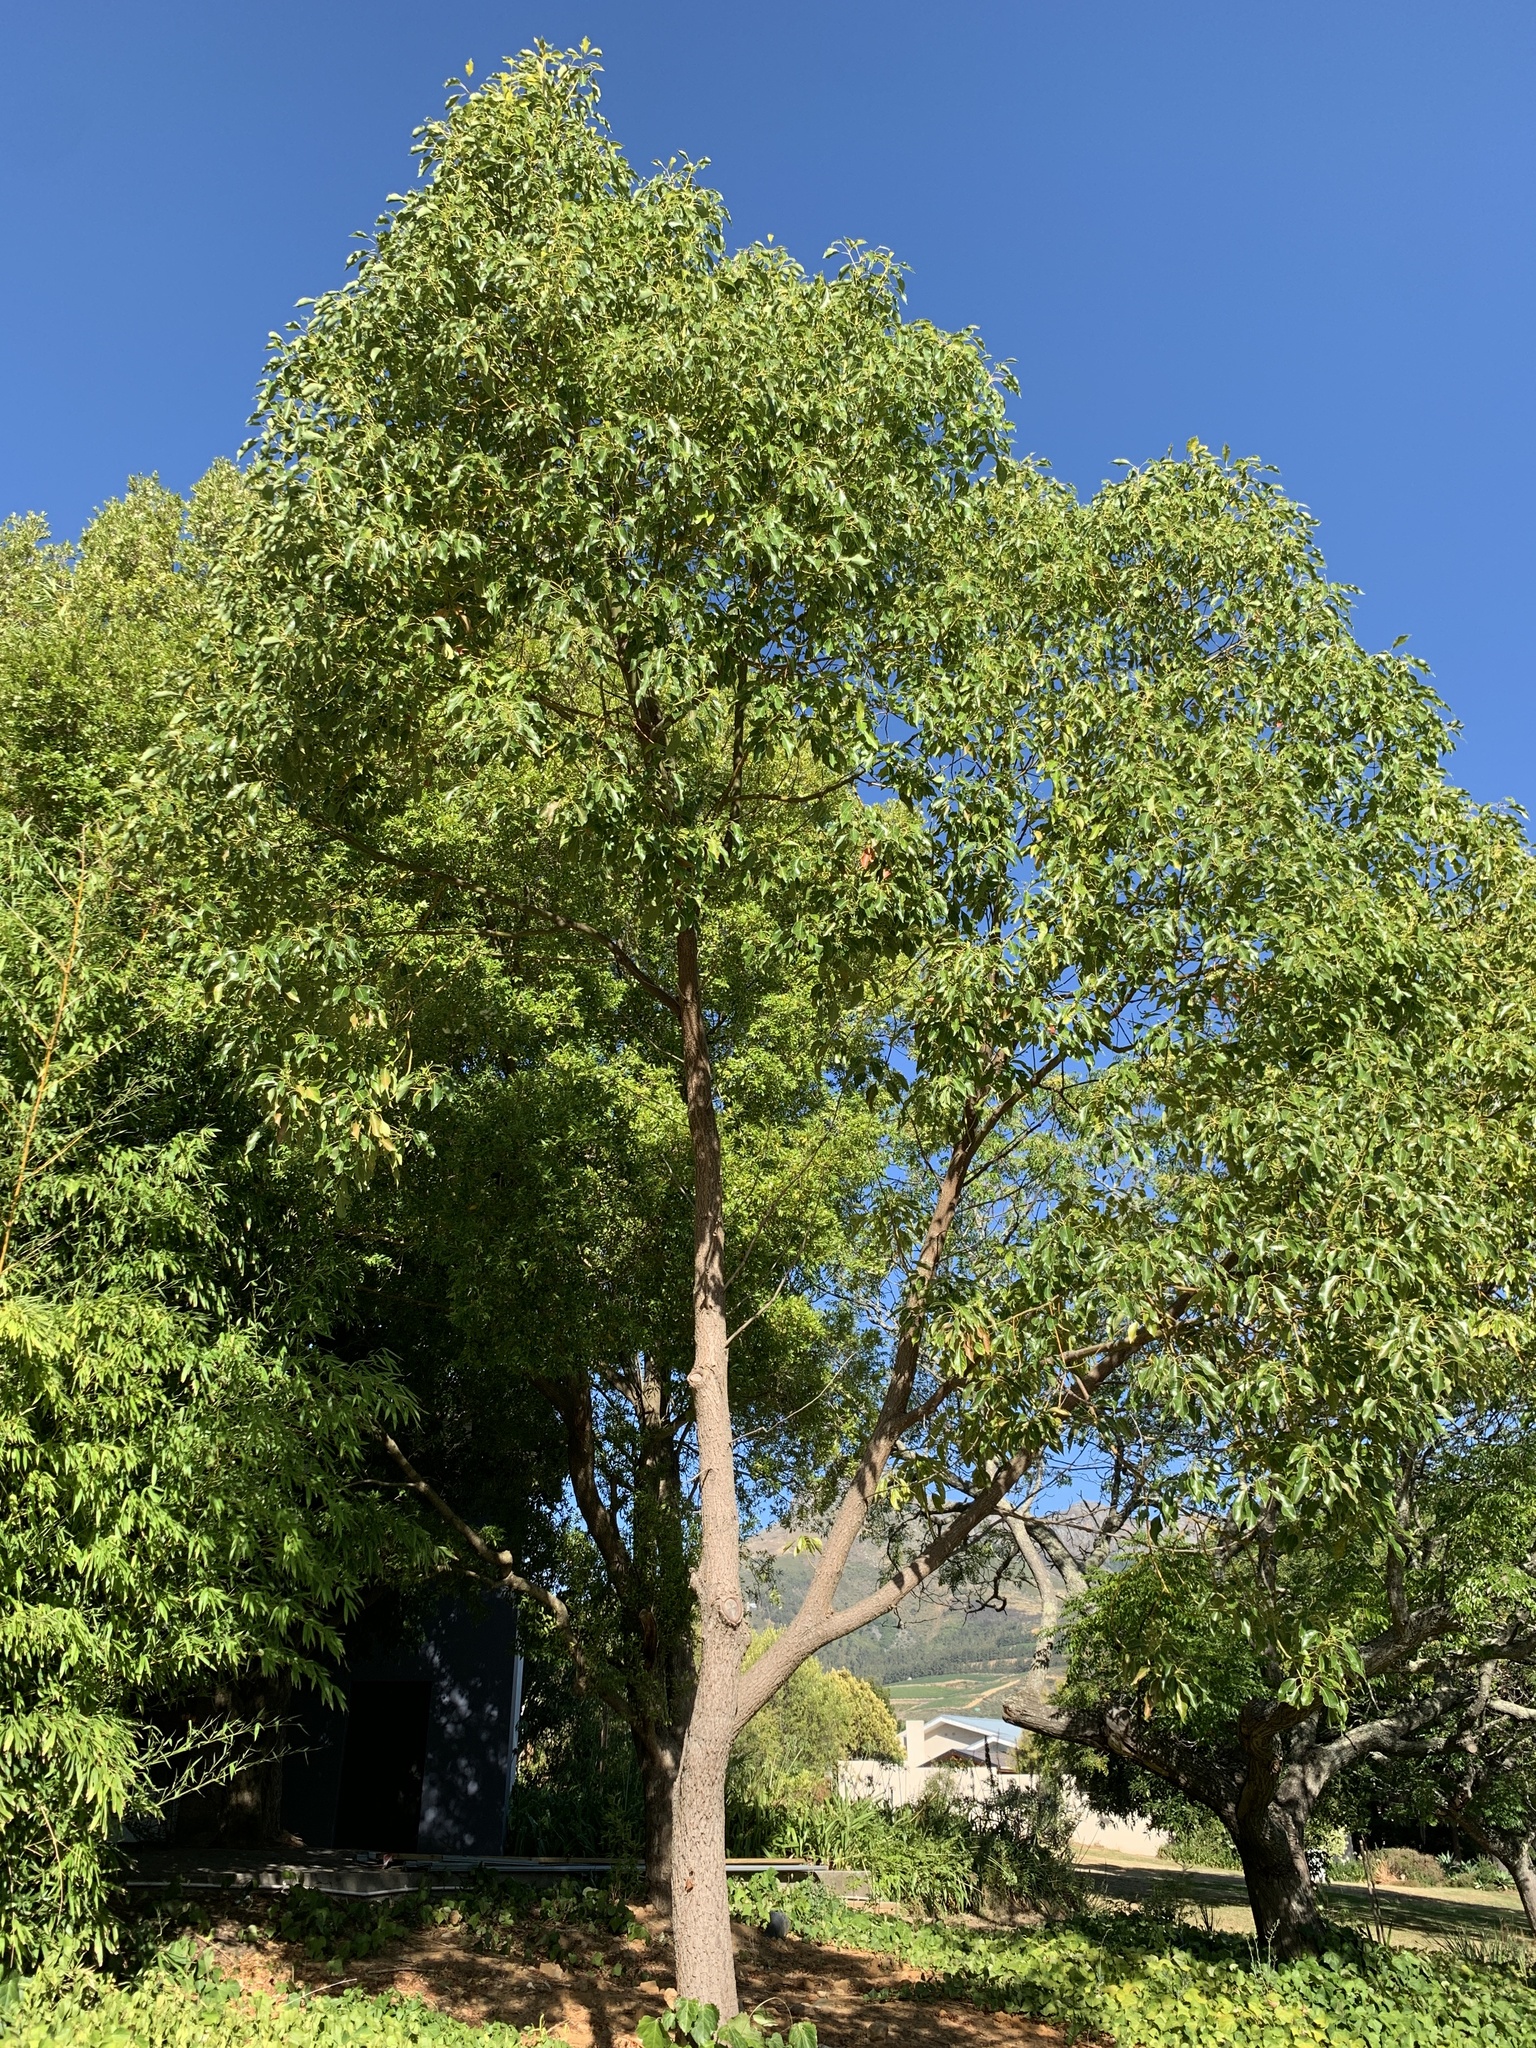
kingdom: Plantae
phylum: Tracheophyta
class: Magnoliopsida
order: Laurales
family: Lauraceae
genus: Cinnamomum
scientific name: Cinnamomum camphora
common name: Camphortree
